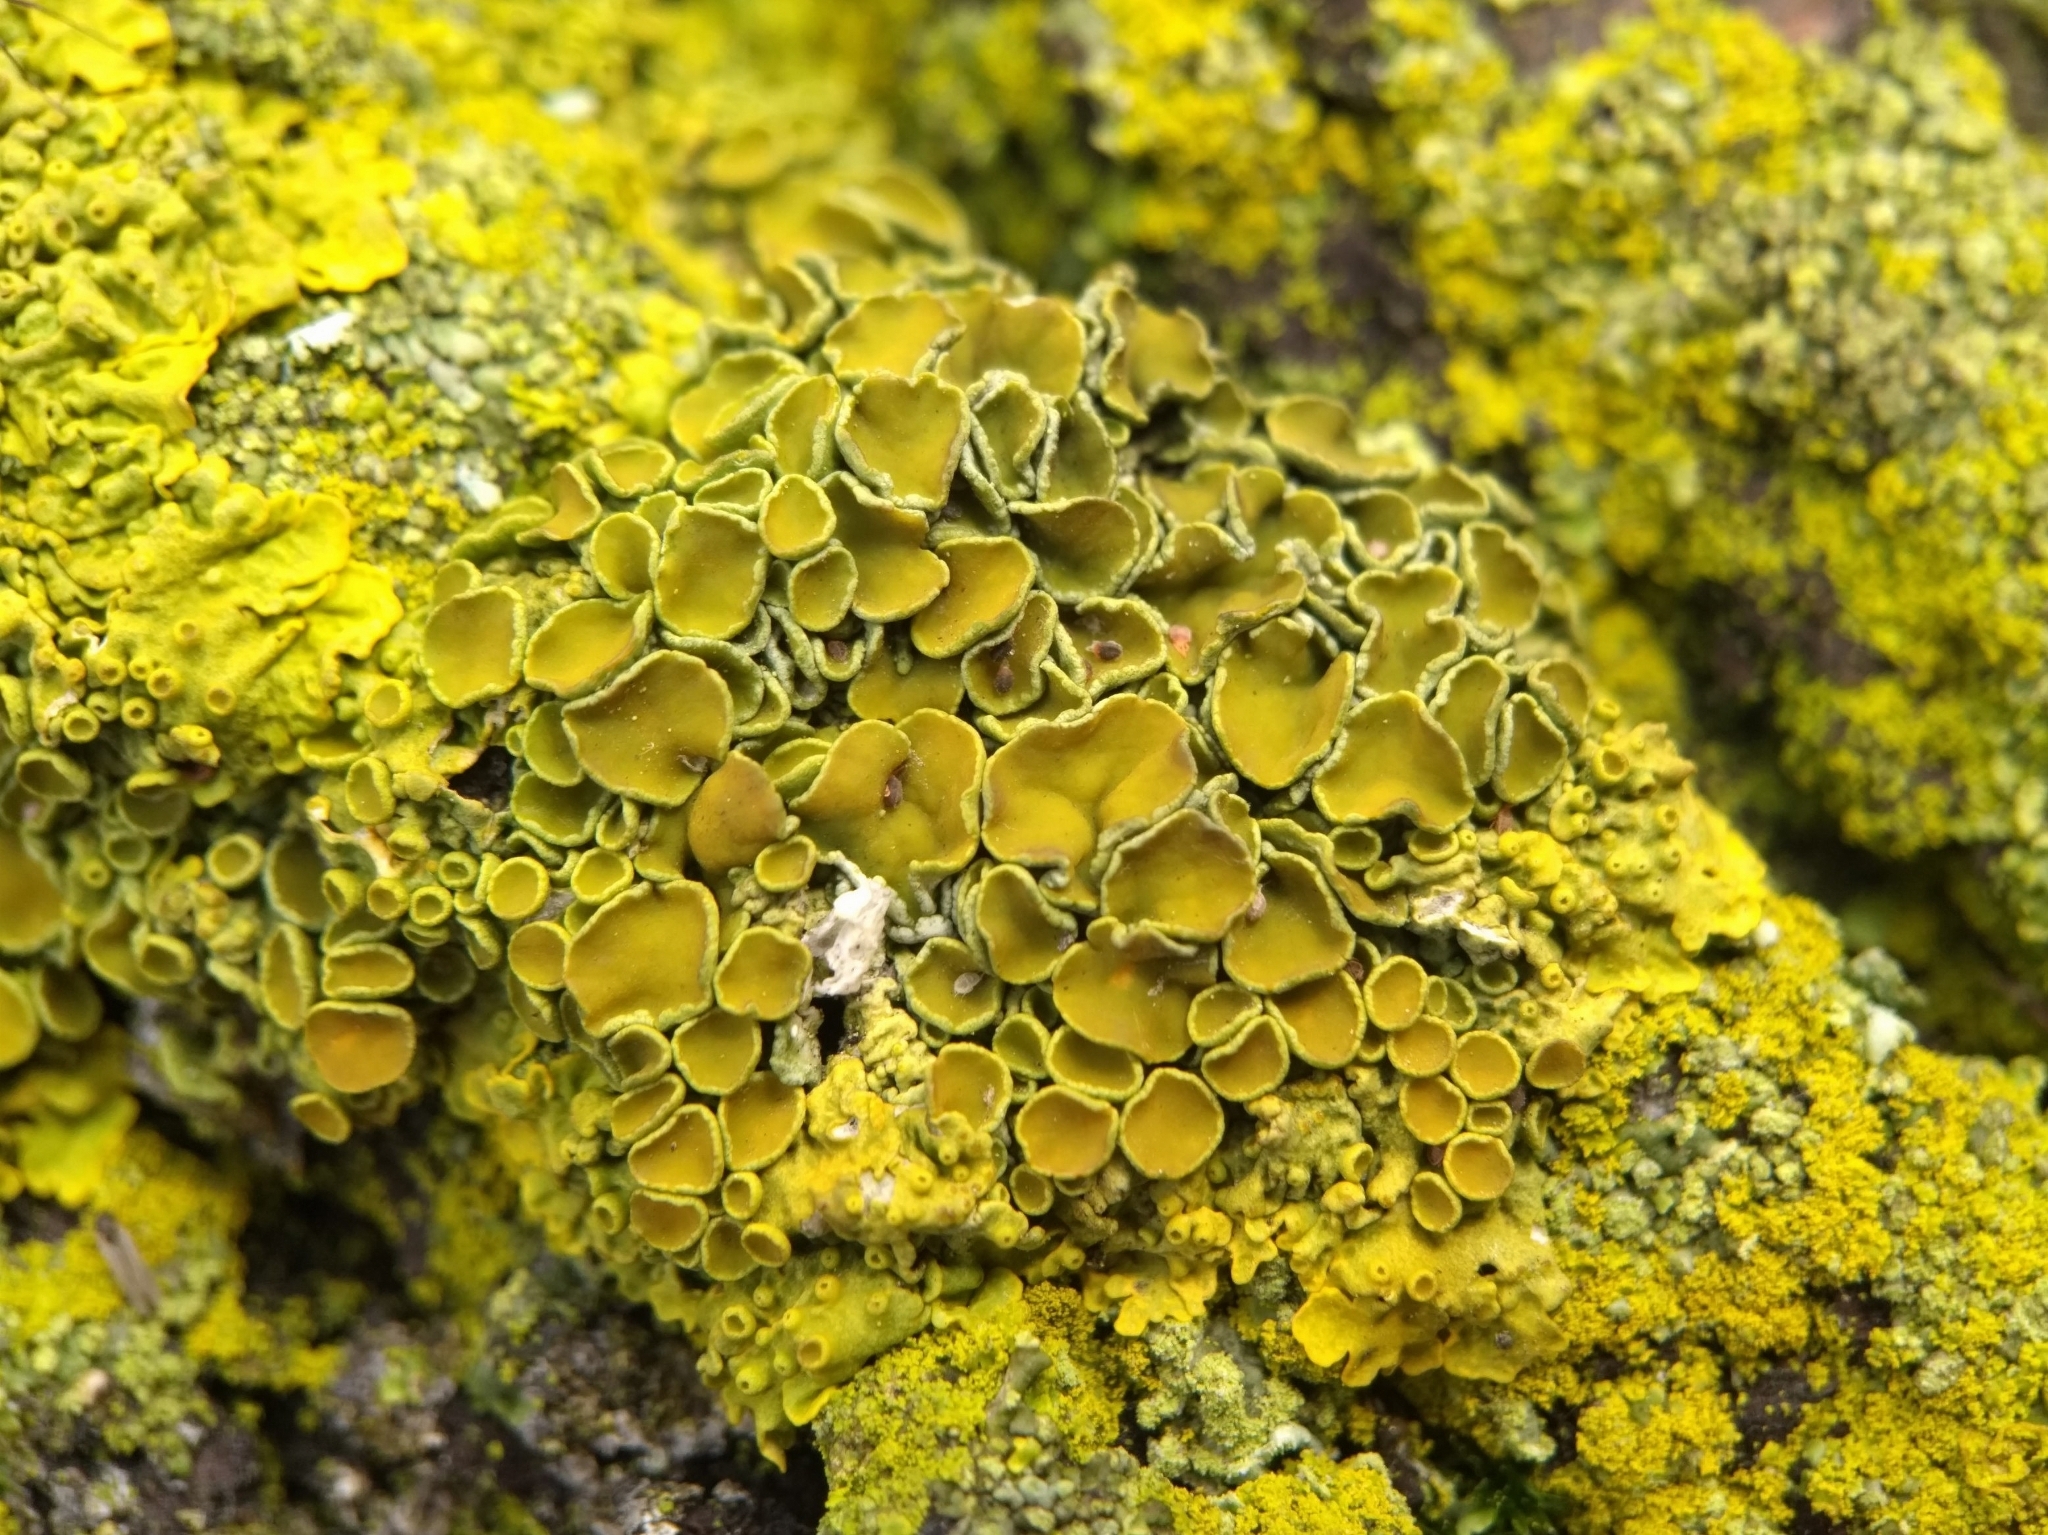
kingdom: Fungi
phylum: Ascomycota
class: Lecanoromycetes
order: Teloschistales
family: Teloschistaceae
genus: Xanthoria
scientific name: Xanthoria parietina
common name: Common orange lichen
